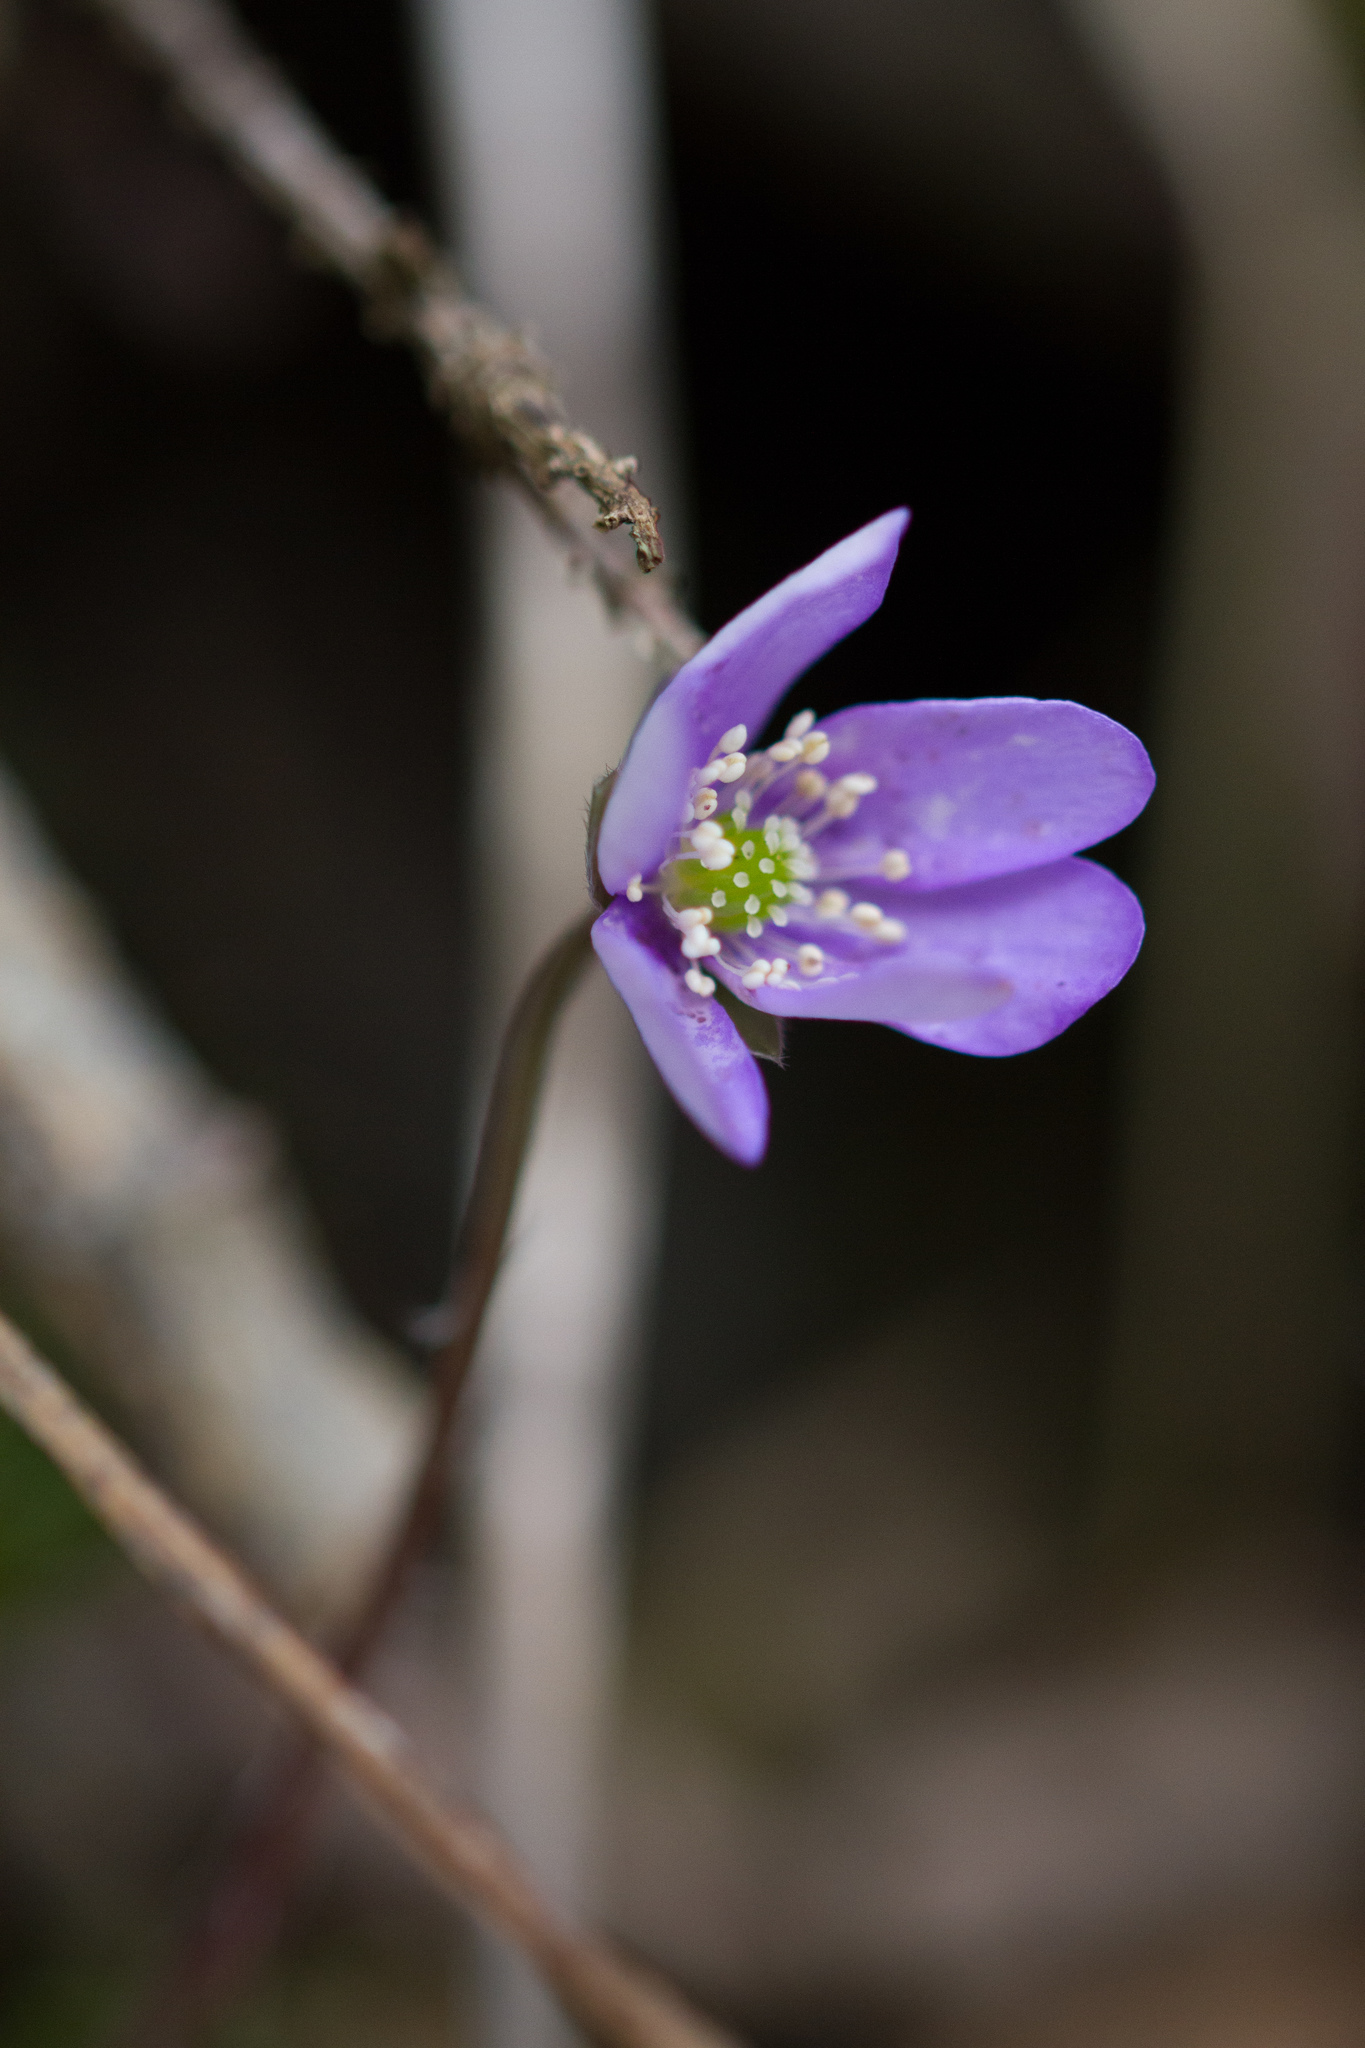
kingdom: Plantae
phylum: Tracheophyta
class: Magnoliopsida
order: Ranunculales
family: Ranunculaceae
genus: Hepatica
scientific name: Hepatica nobilis
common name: Liverleaf
